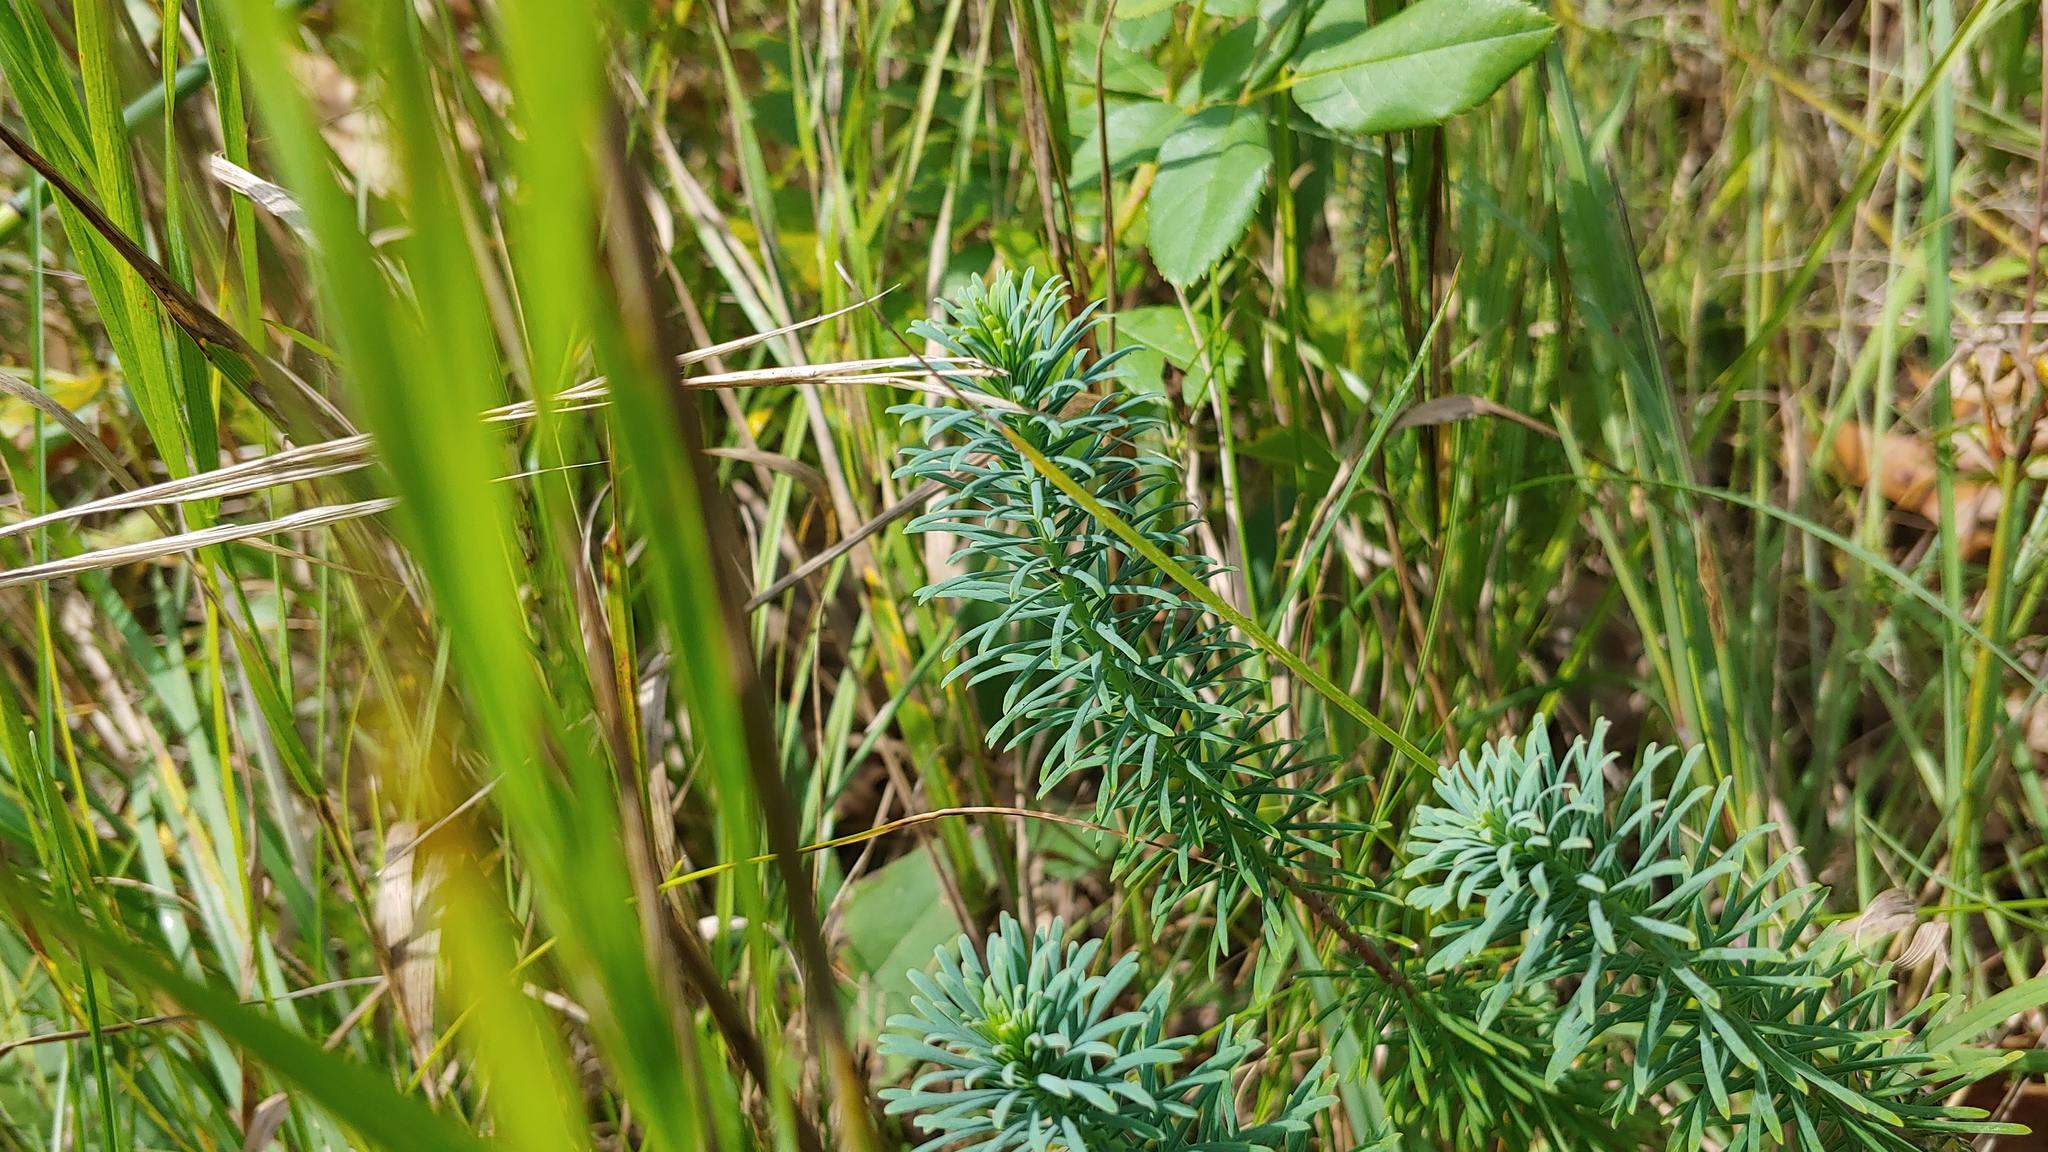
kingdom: Plantae
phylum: Tracheophyta
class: Magnoliopsida
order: Malpighiales
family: Euphorbiaceae
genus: Euphorbia
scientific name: Euphorbia cyparissias
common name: Cypress spurge
